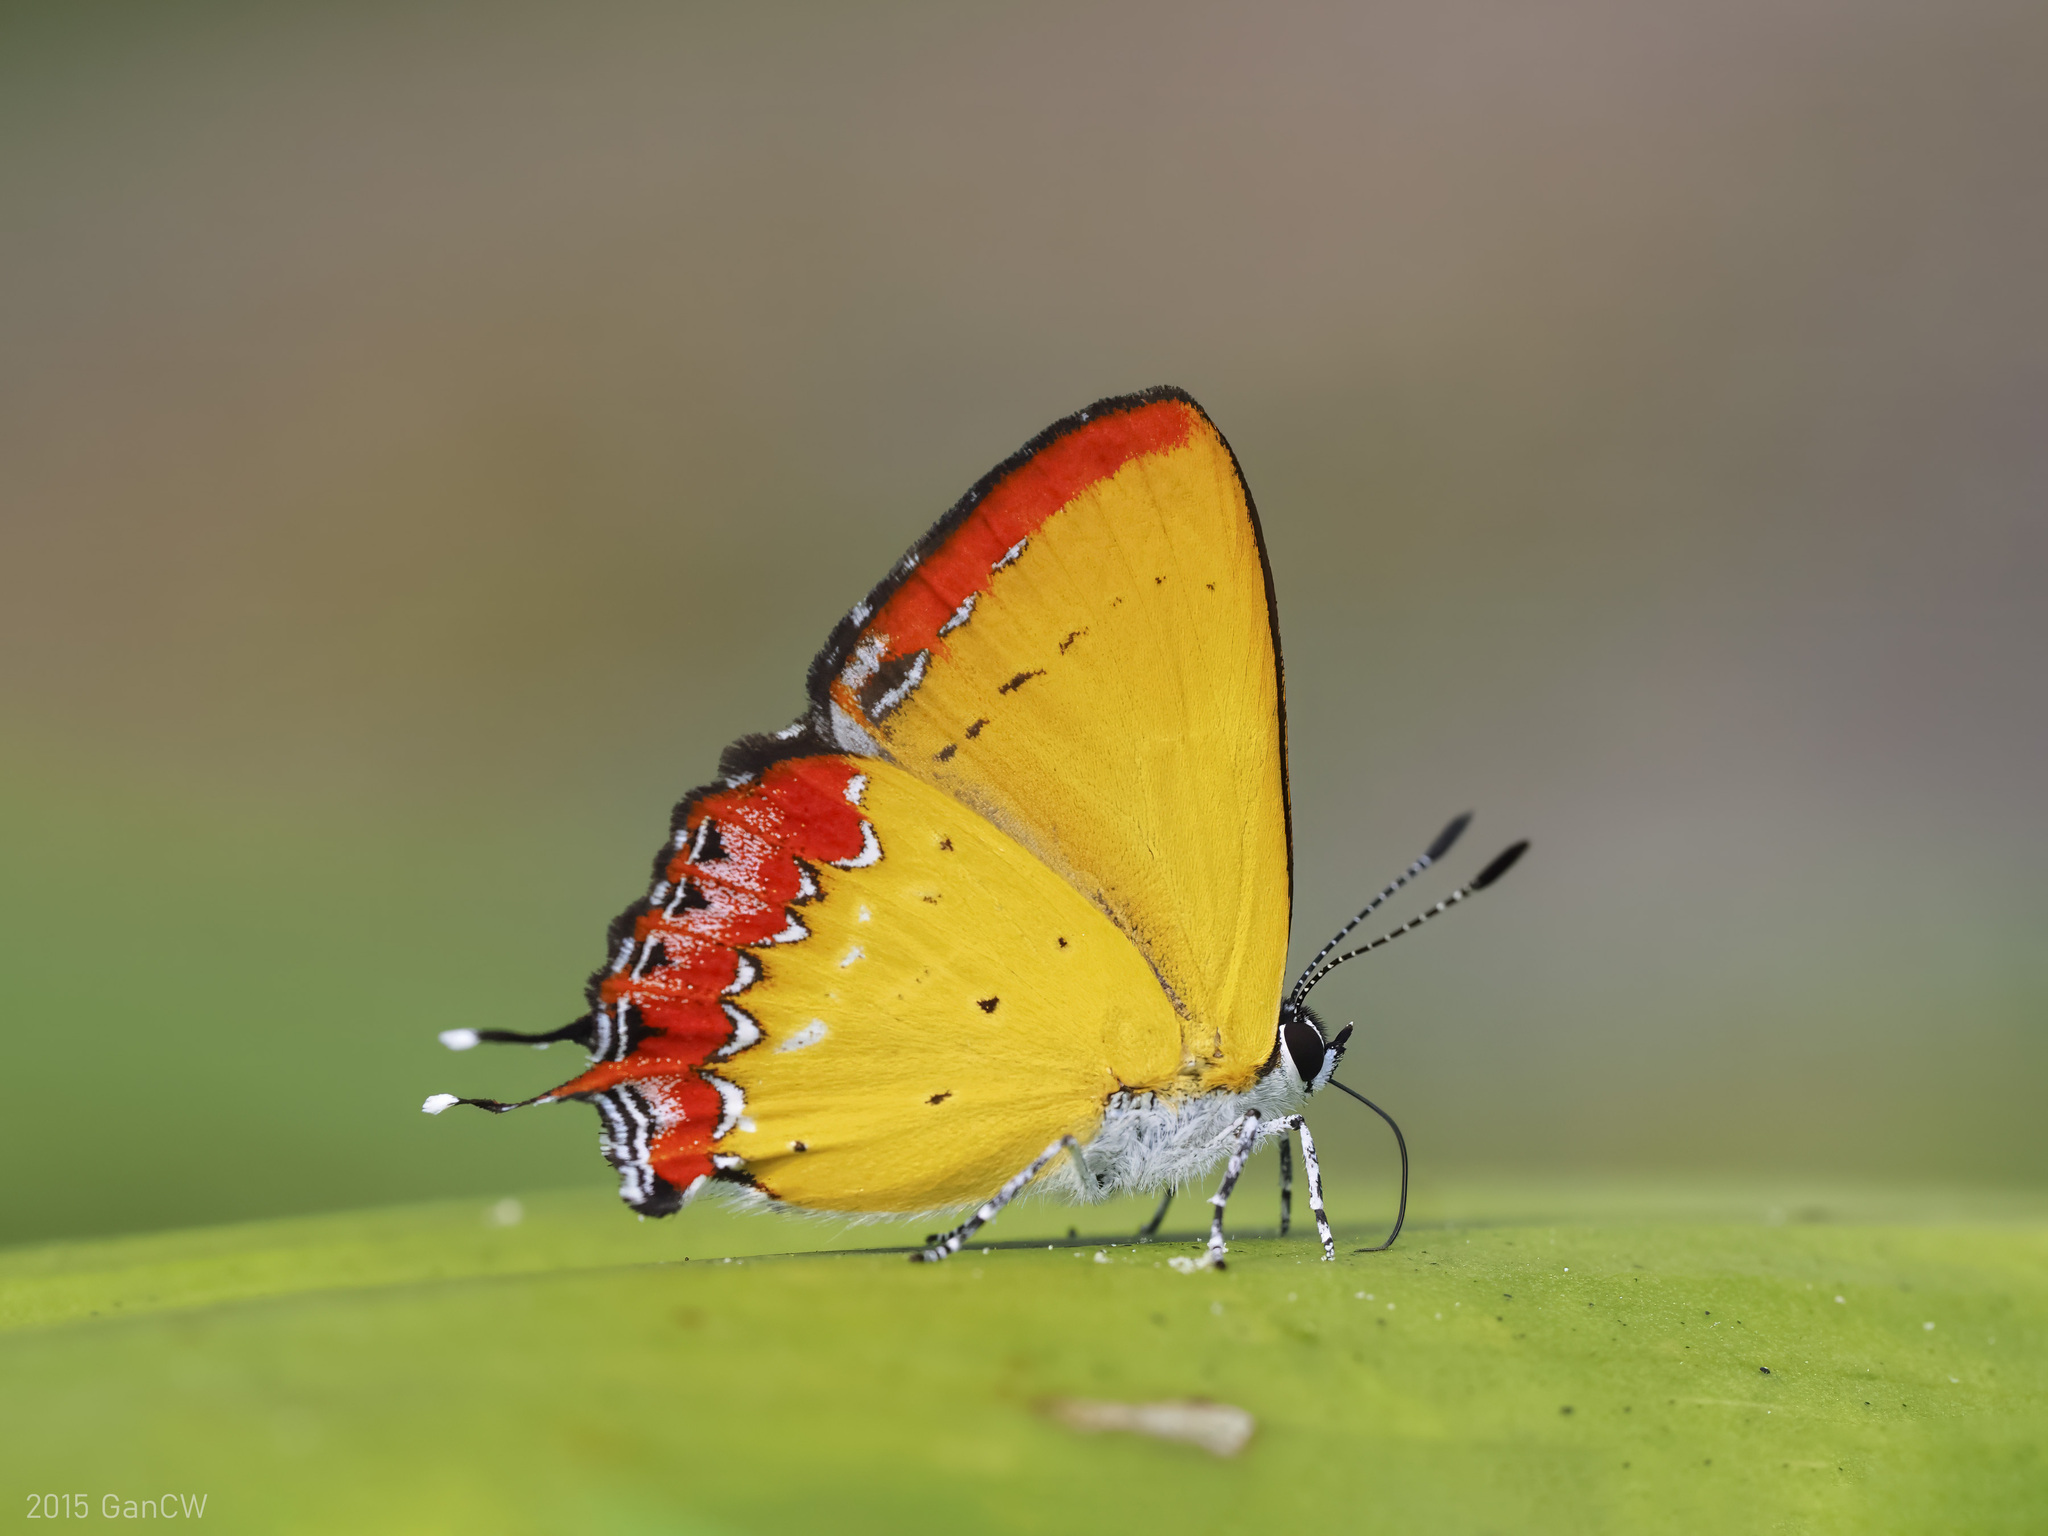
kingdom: Animalia
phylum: Arthropoda
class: Insecta
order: Lepidoptera
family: Lycaenidae
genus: Heliophorus
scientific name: Heliophorus epicles
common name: Purple sapphire
